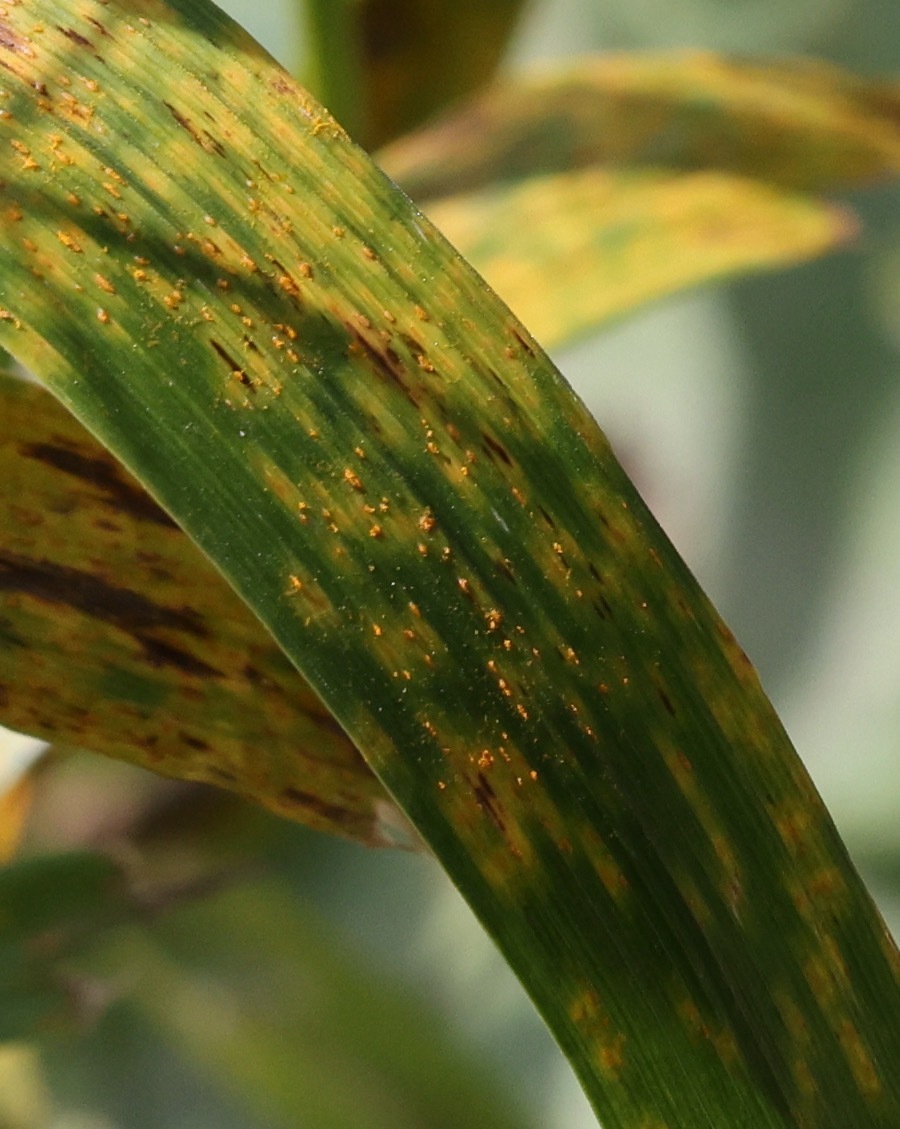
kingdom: Fungi
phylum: Basidiomycota
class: Pucciniomycetes
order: Pucciniales
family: Pucciniaceae
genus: Puccinia
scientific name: Puccinia coronata
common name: Crown rust
